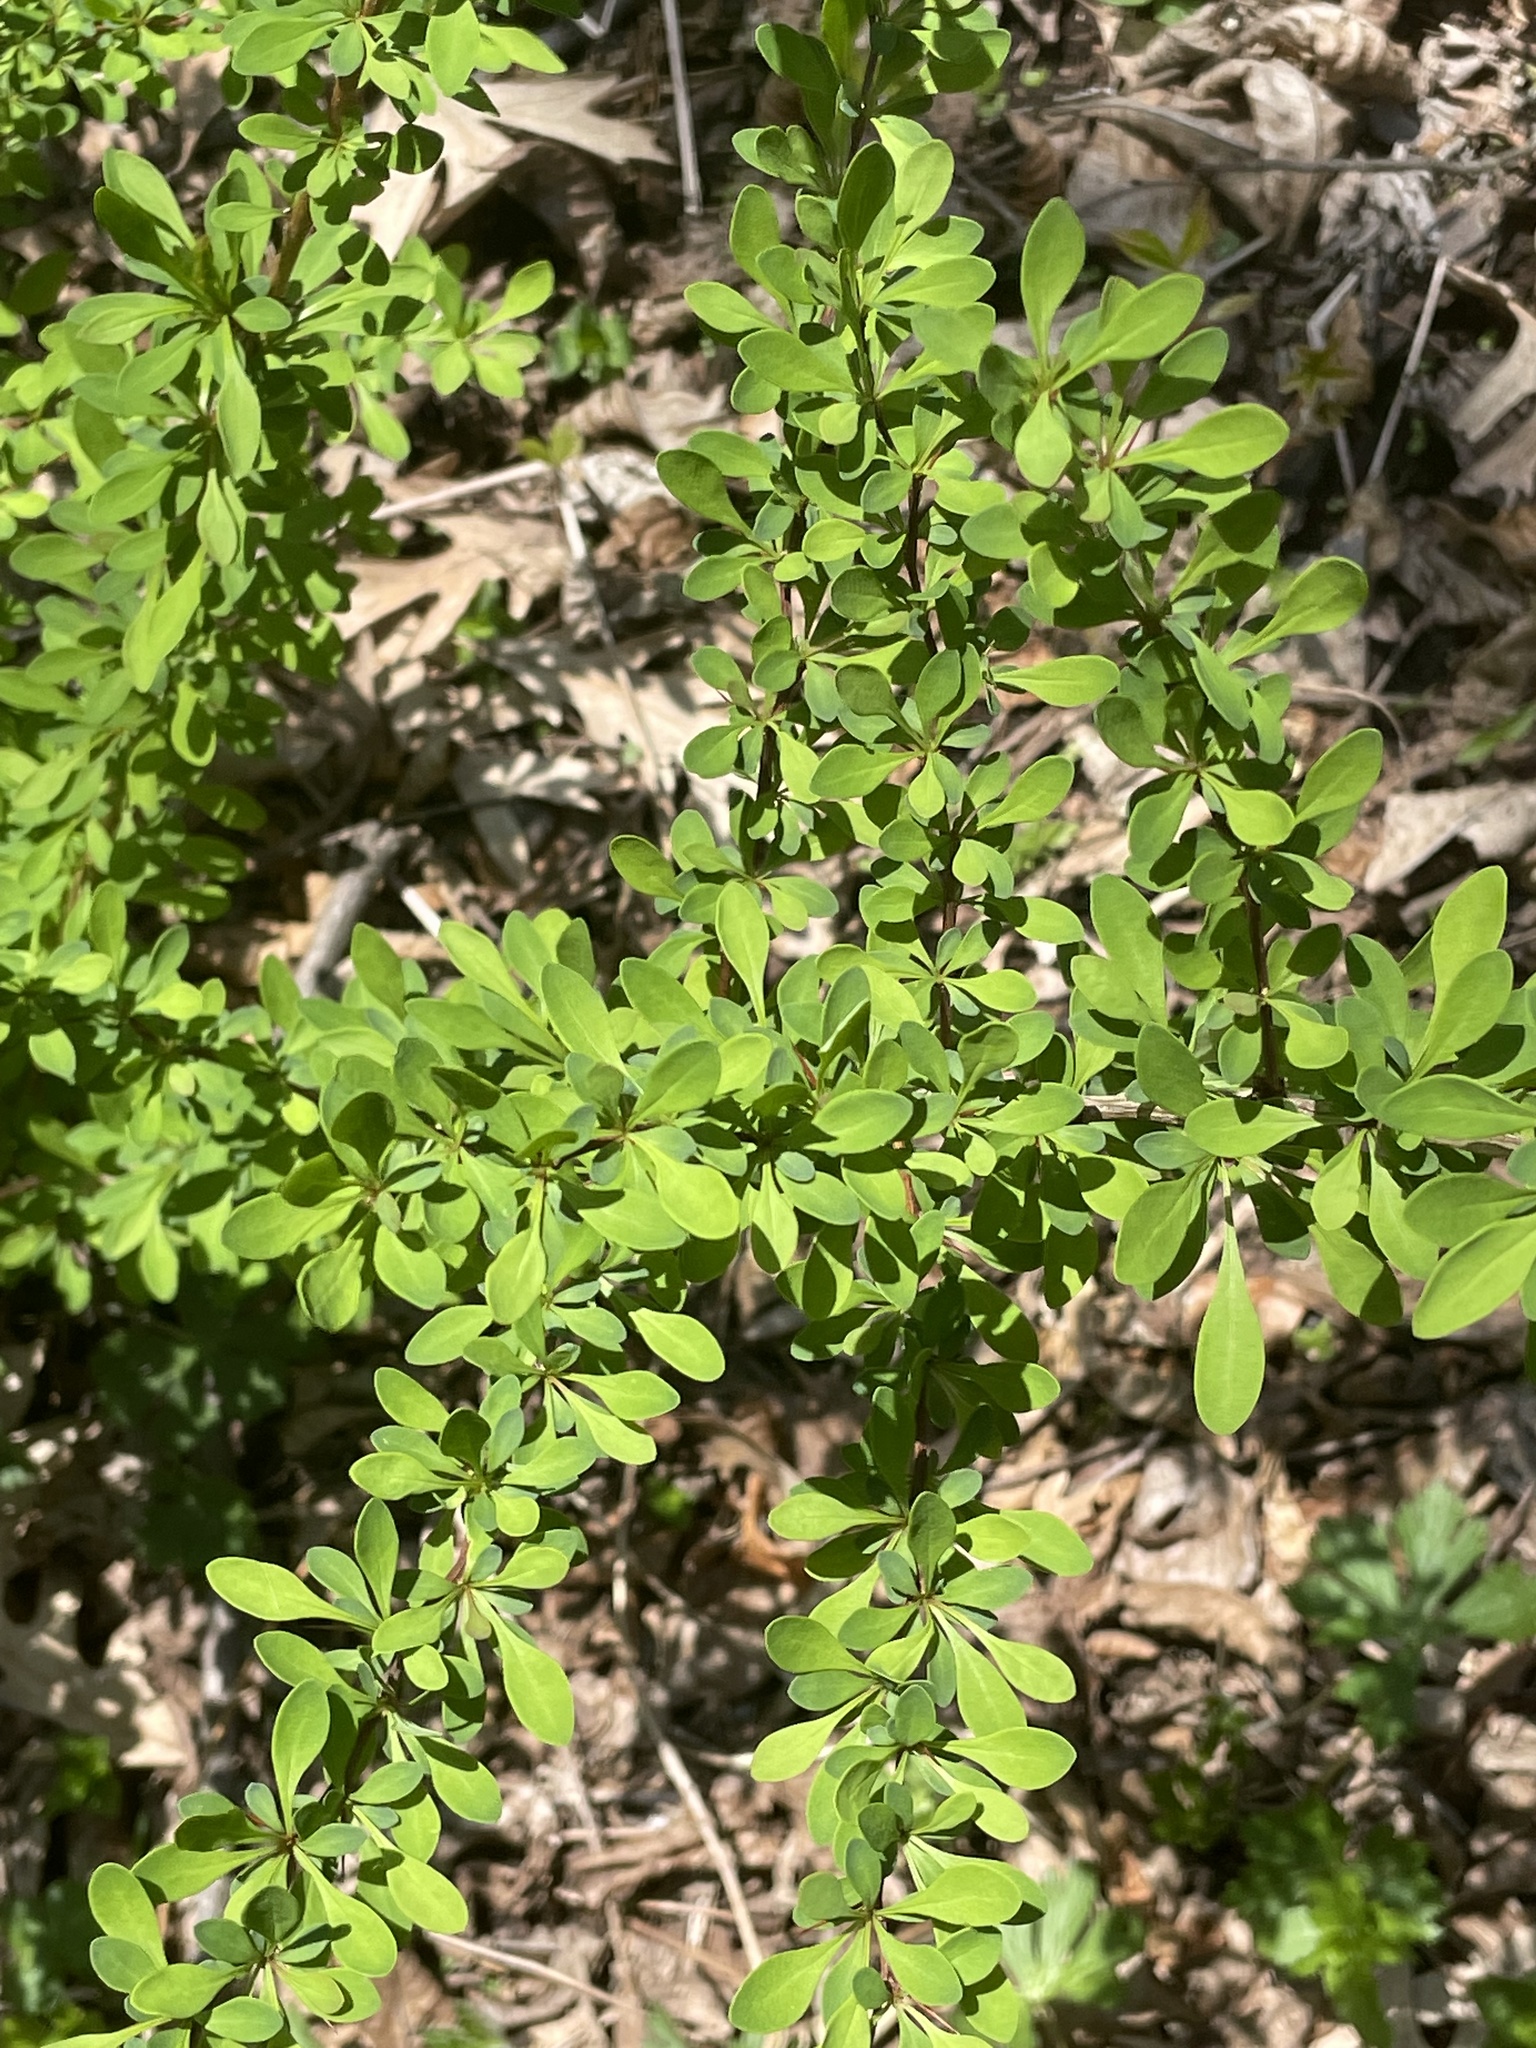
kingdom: Plantae
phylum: Tracheophyta
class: Magnoliopsida
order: Ranunculales
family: Berberidaceae
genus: Berberis
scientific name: Berberis thunbergii
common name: Japanese barberry
